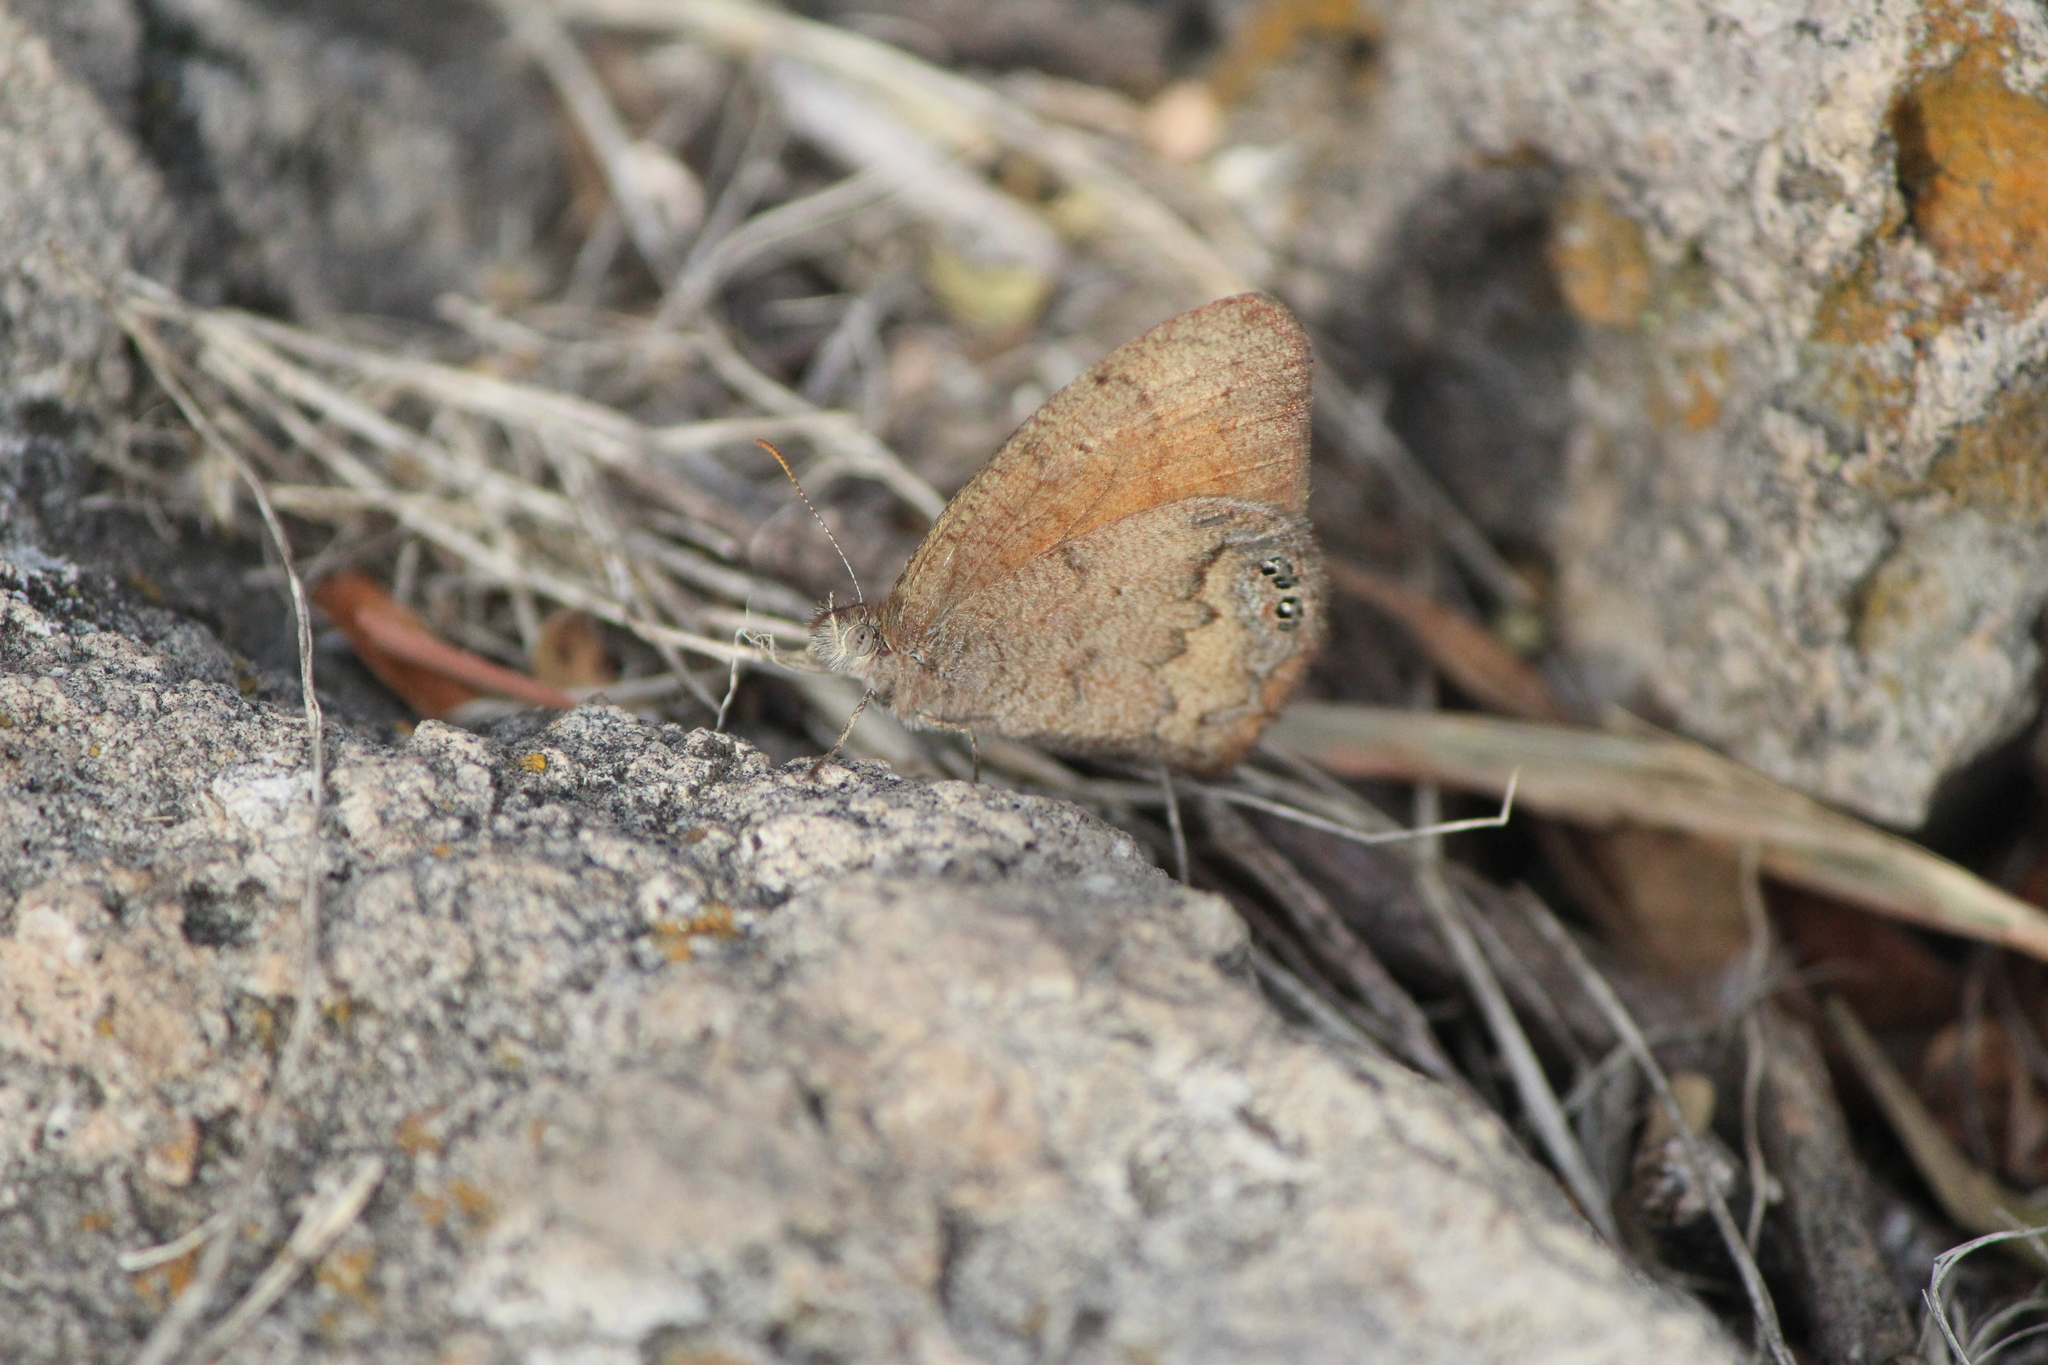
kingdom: Animalia
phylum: Arthropoda
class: Insecta
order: Lepidoptera
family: Nymphalidae
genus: Euptychia
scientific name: Euptychia Cyllopsis pertepida
